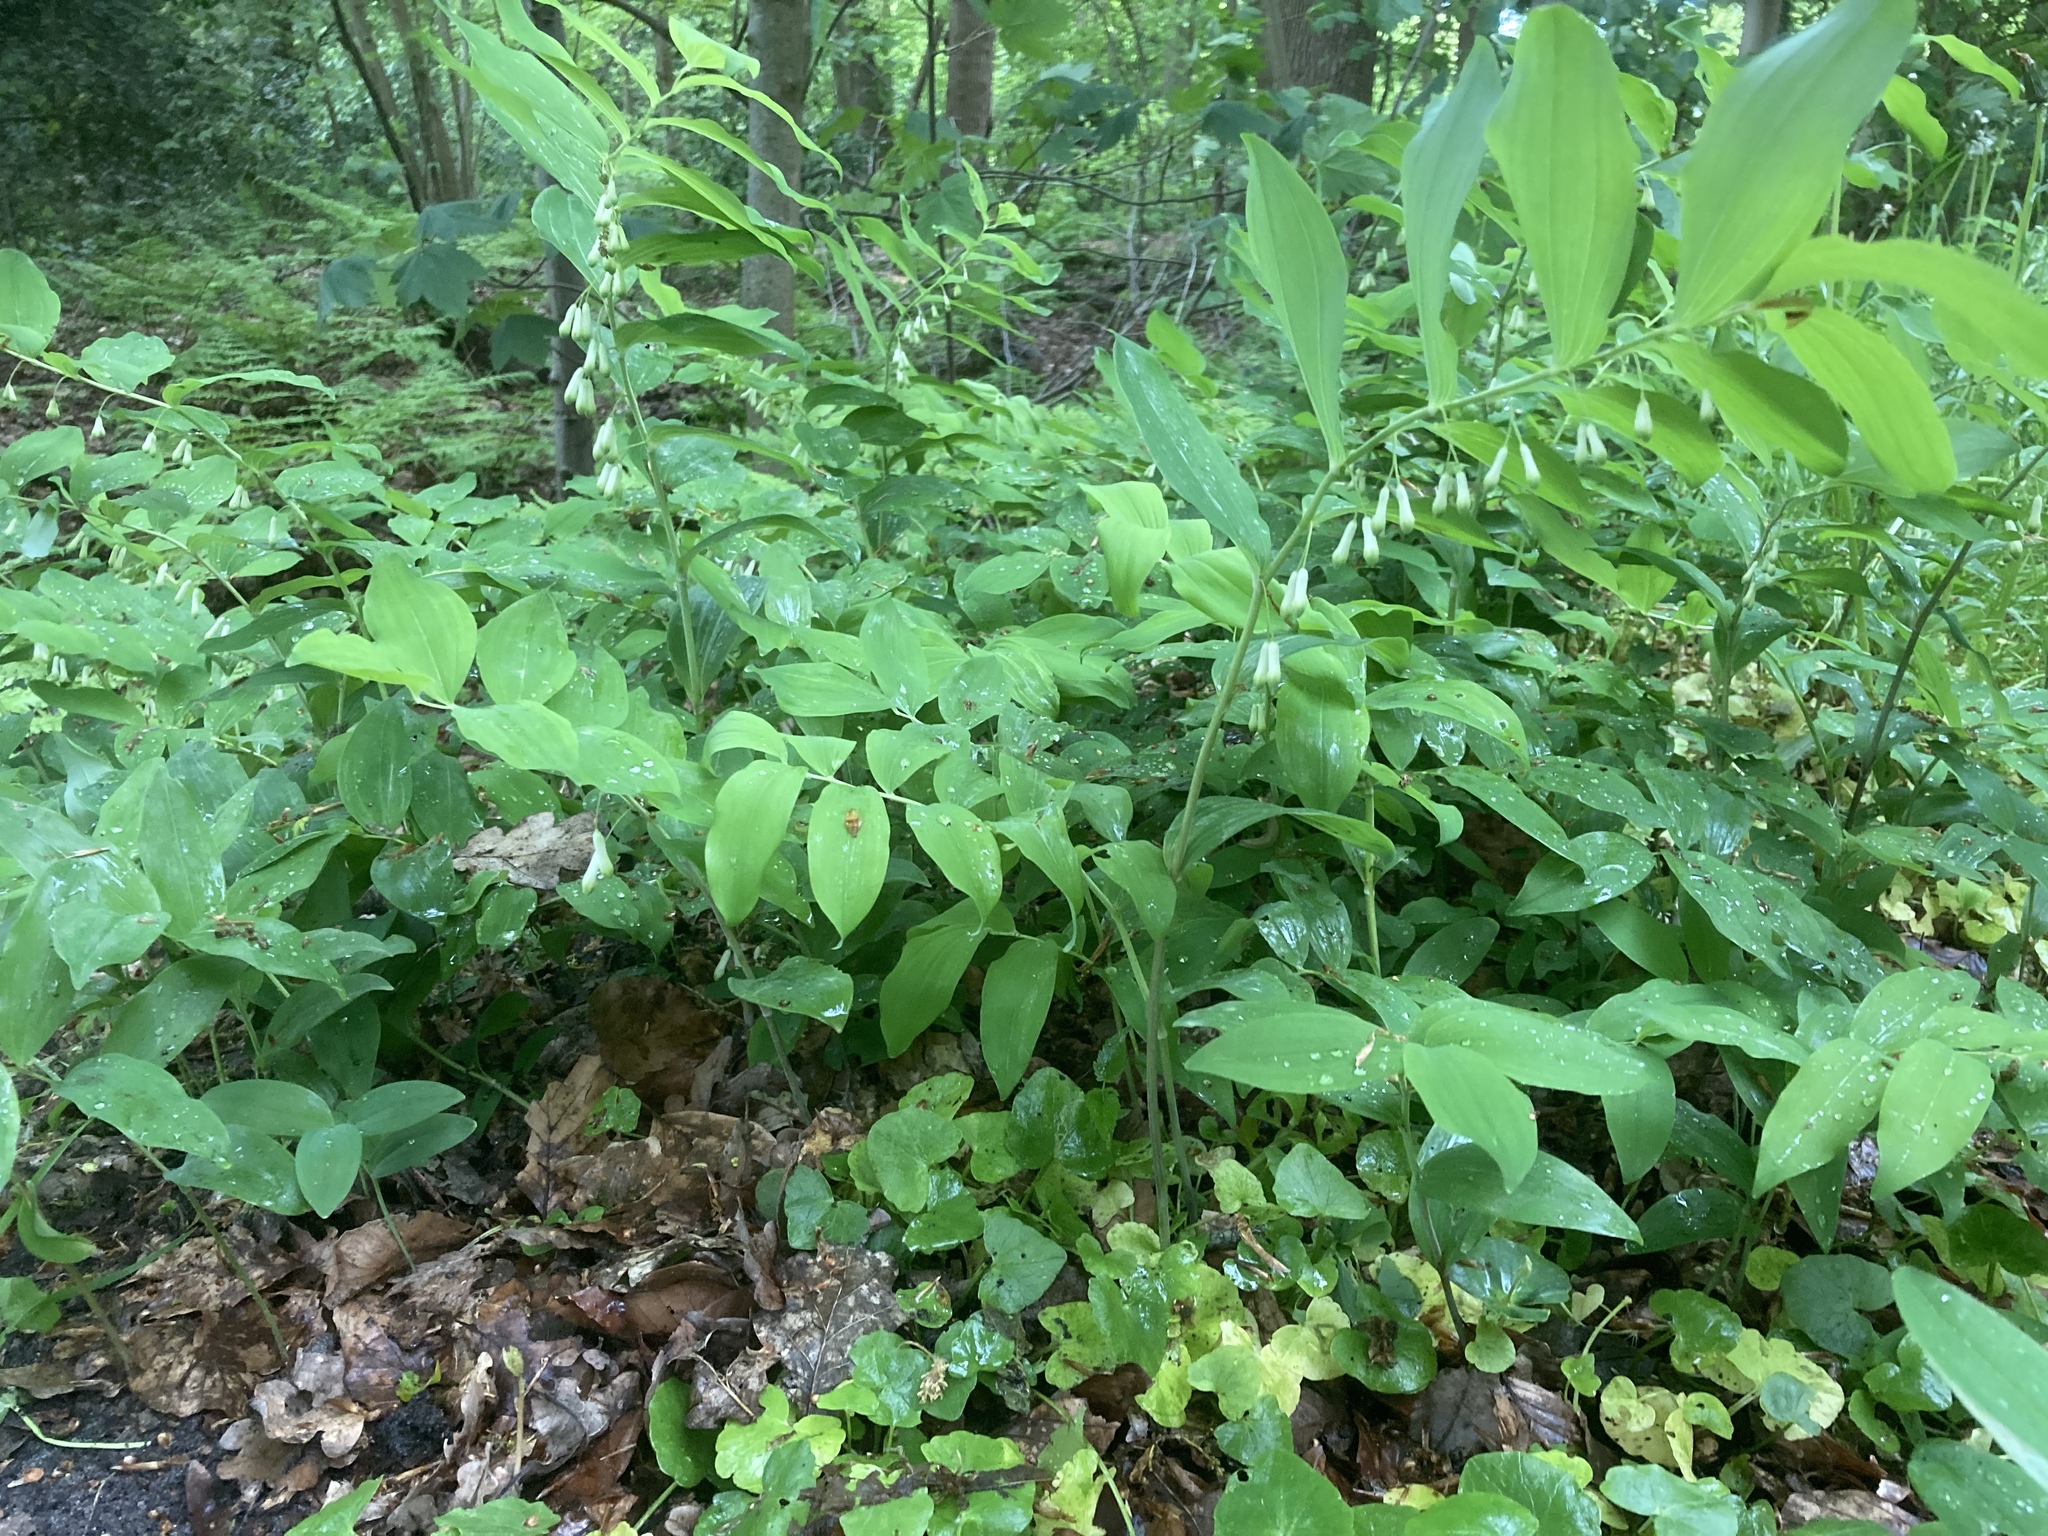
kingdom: Plantae
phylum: Tracheophyta
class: Liliopsida
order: Asparagales
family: Asparagaceae
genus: Polygonatum
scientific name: Polygonatum multiflorum
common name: Solomon's-seal
